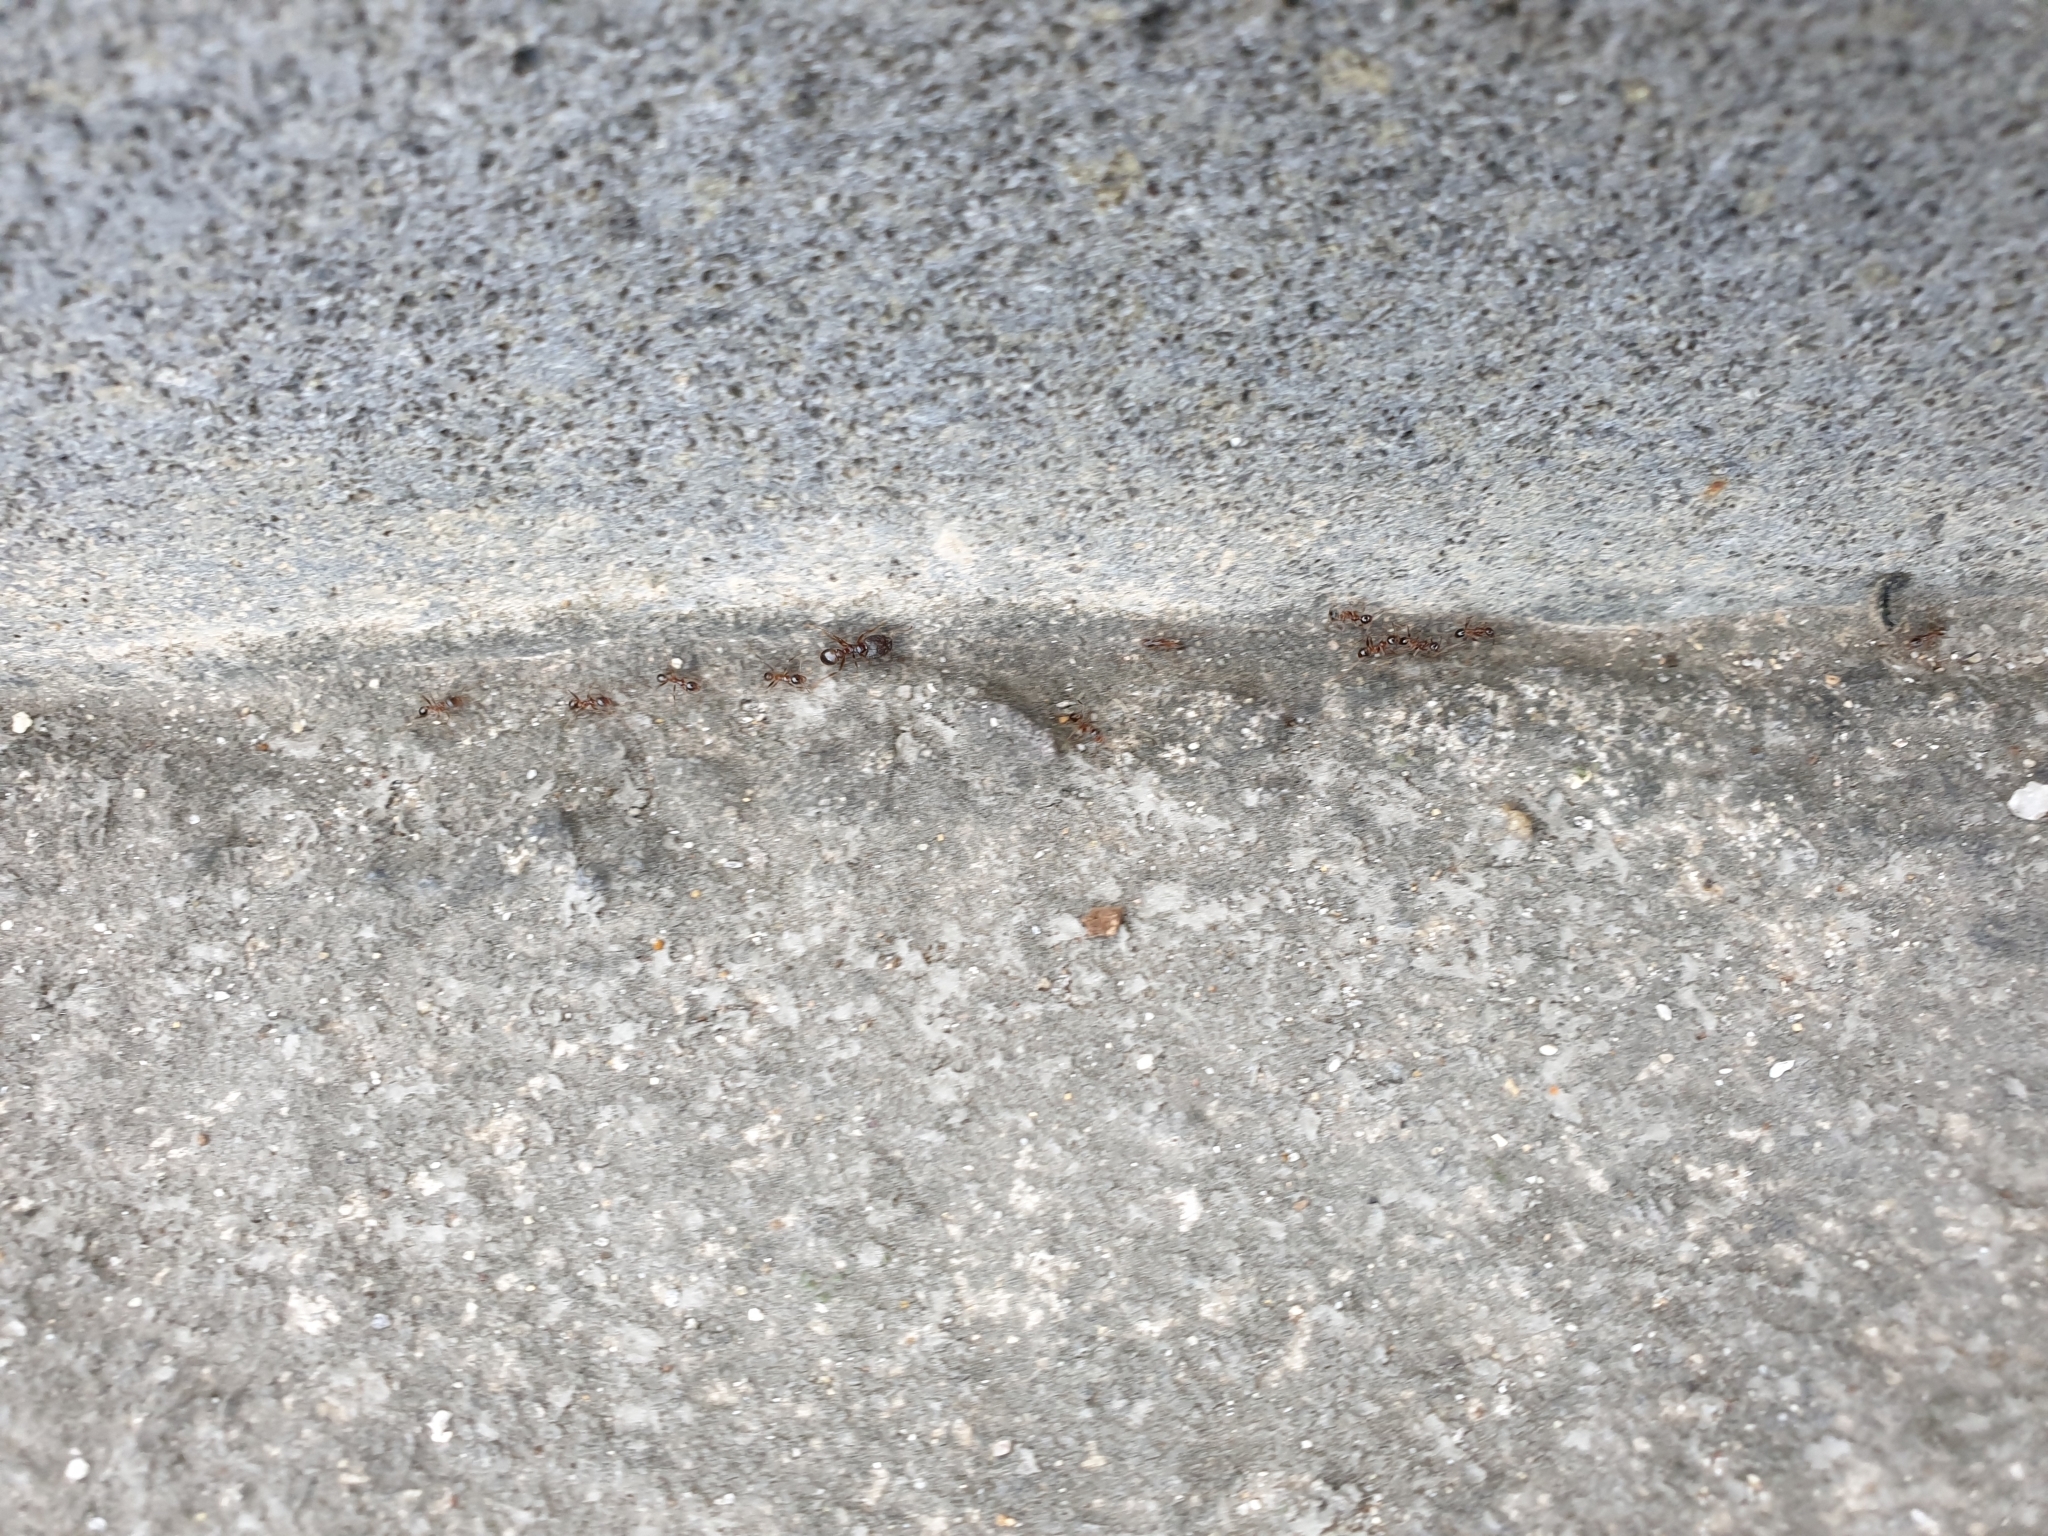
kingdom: Animalia
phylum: Arthropoda
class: Insecta
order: Hymenoptera
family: Formicidae
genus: Pheidole
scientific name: Pheidole noda
